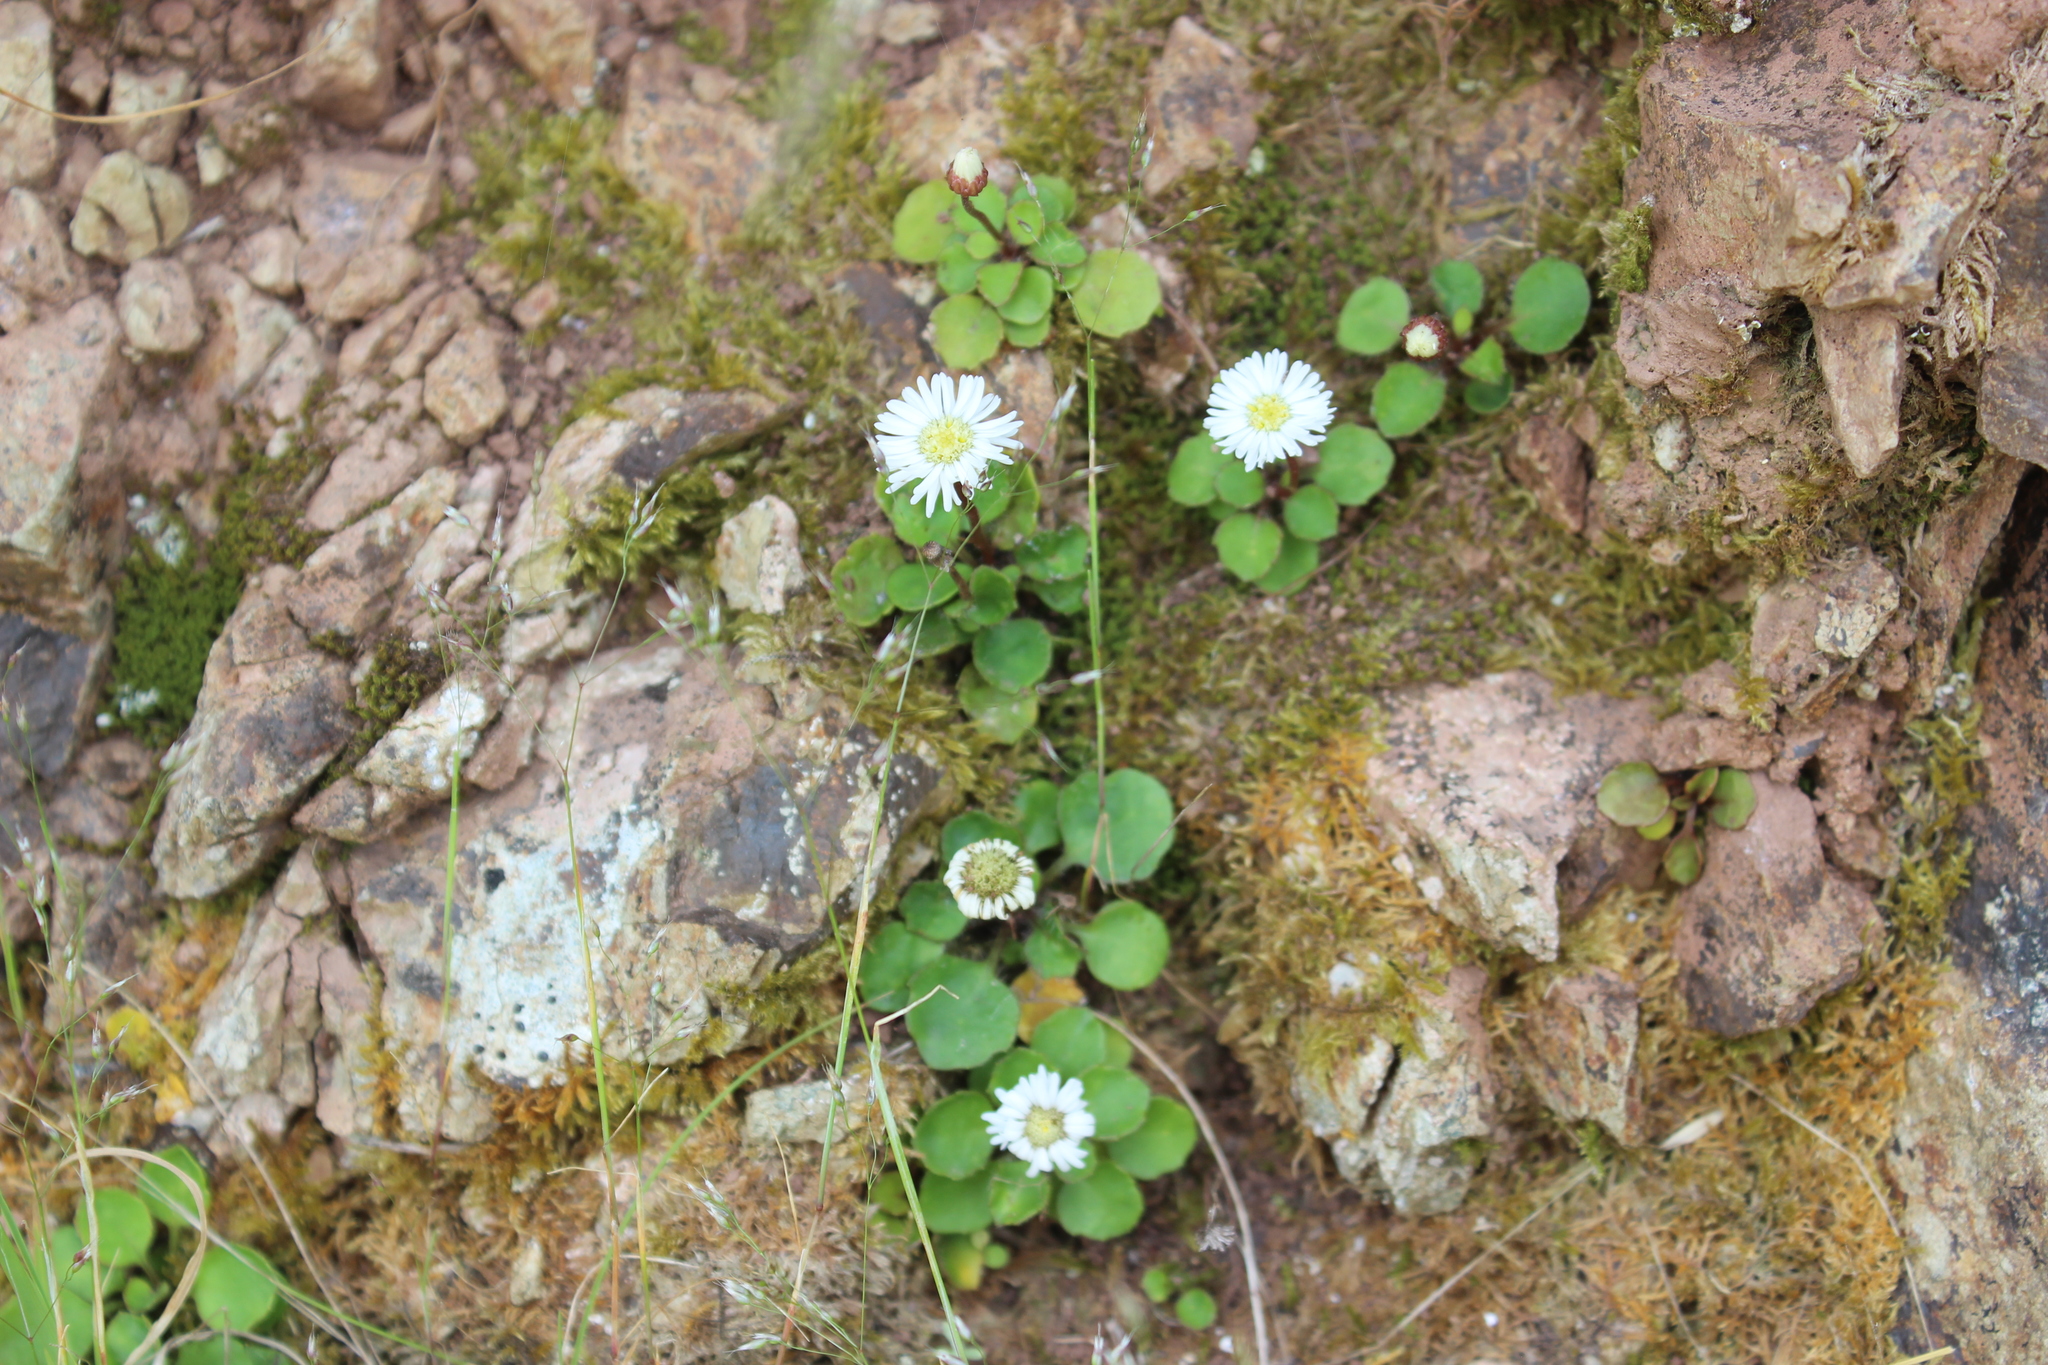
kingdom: Plantae
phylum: Tracheophyta
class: Magnoliopsida
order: Asterales
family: Asteraceae
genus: Lagenophora
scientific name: Lagenophora pumila
